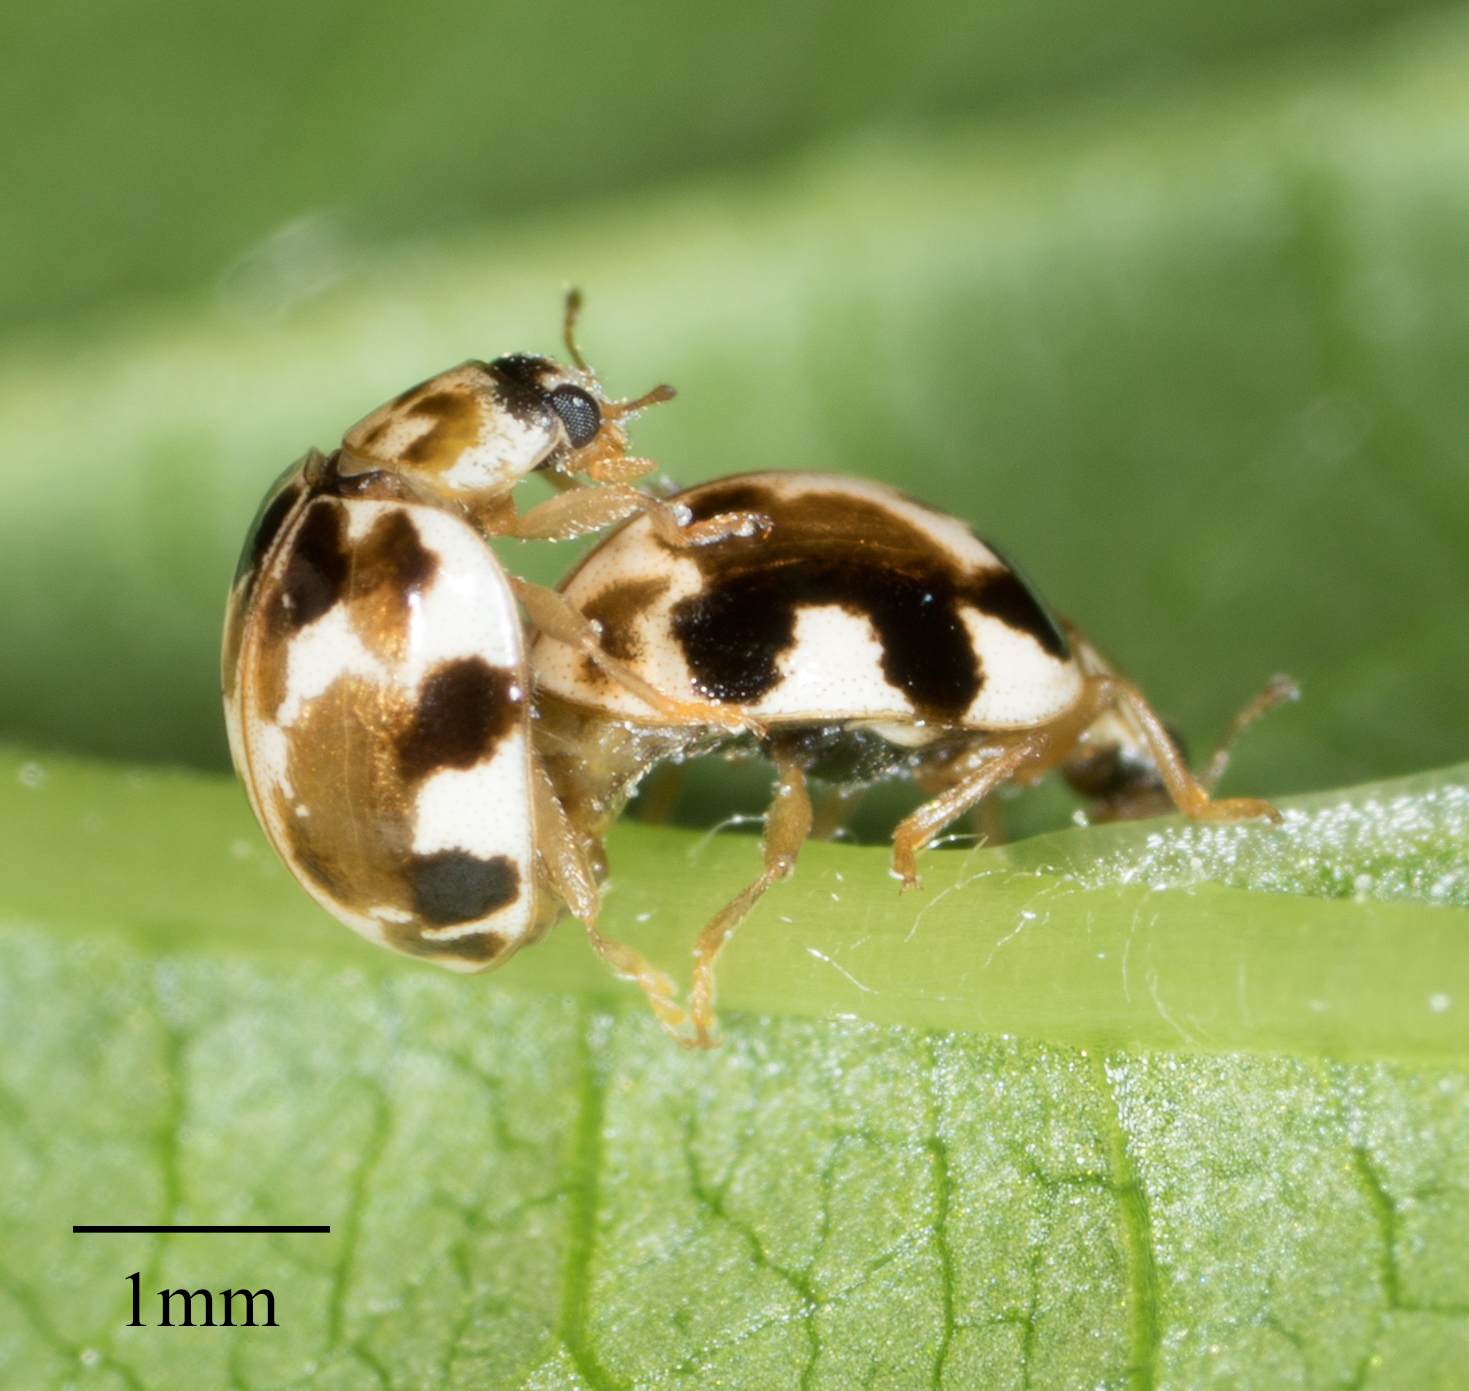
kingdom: Animalia
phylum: Arthropoda
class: Insecta
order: Coleoptera
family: Coccinellidae
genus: Psyllobora
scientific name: Psyllobora vigintimaculata
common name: Ladybird beetle
